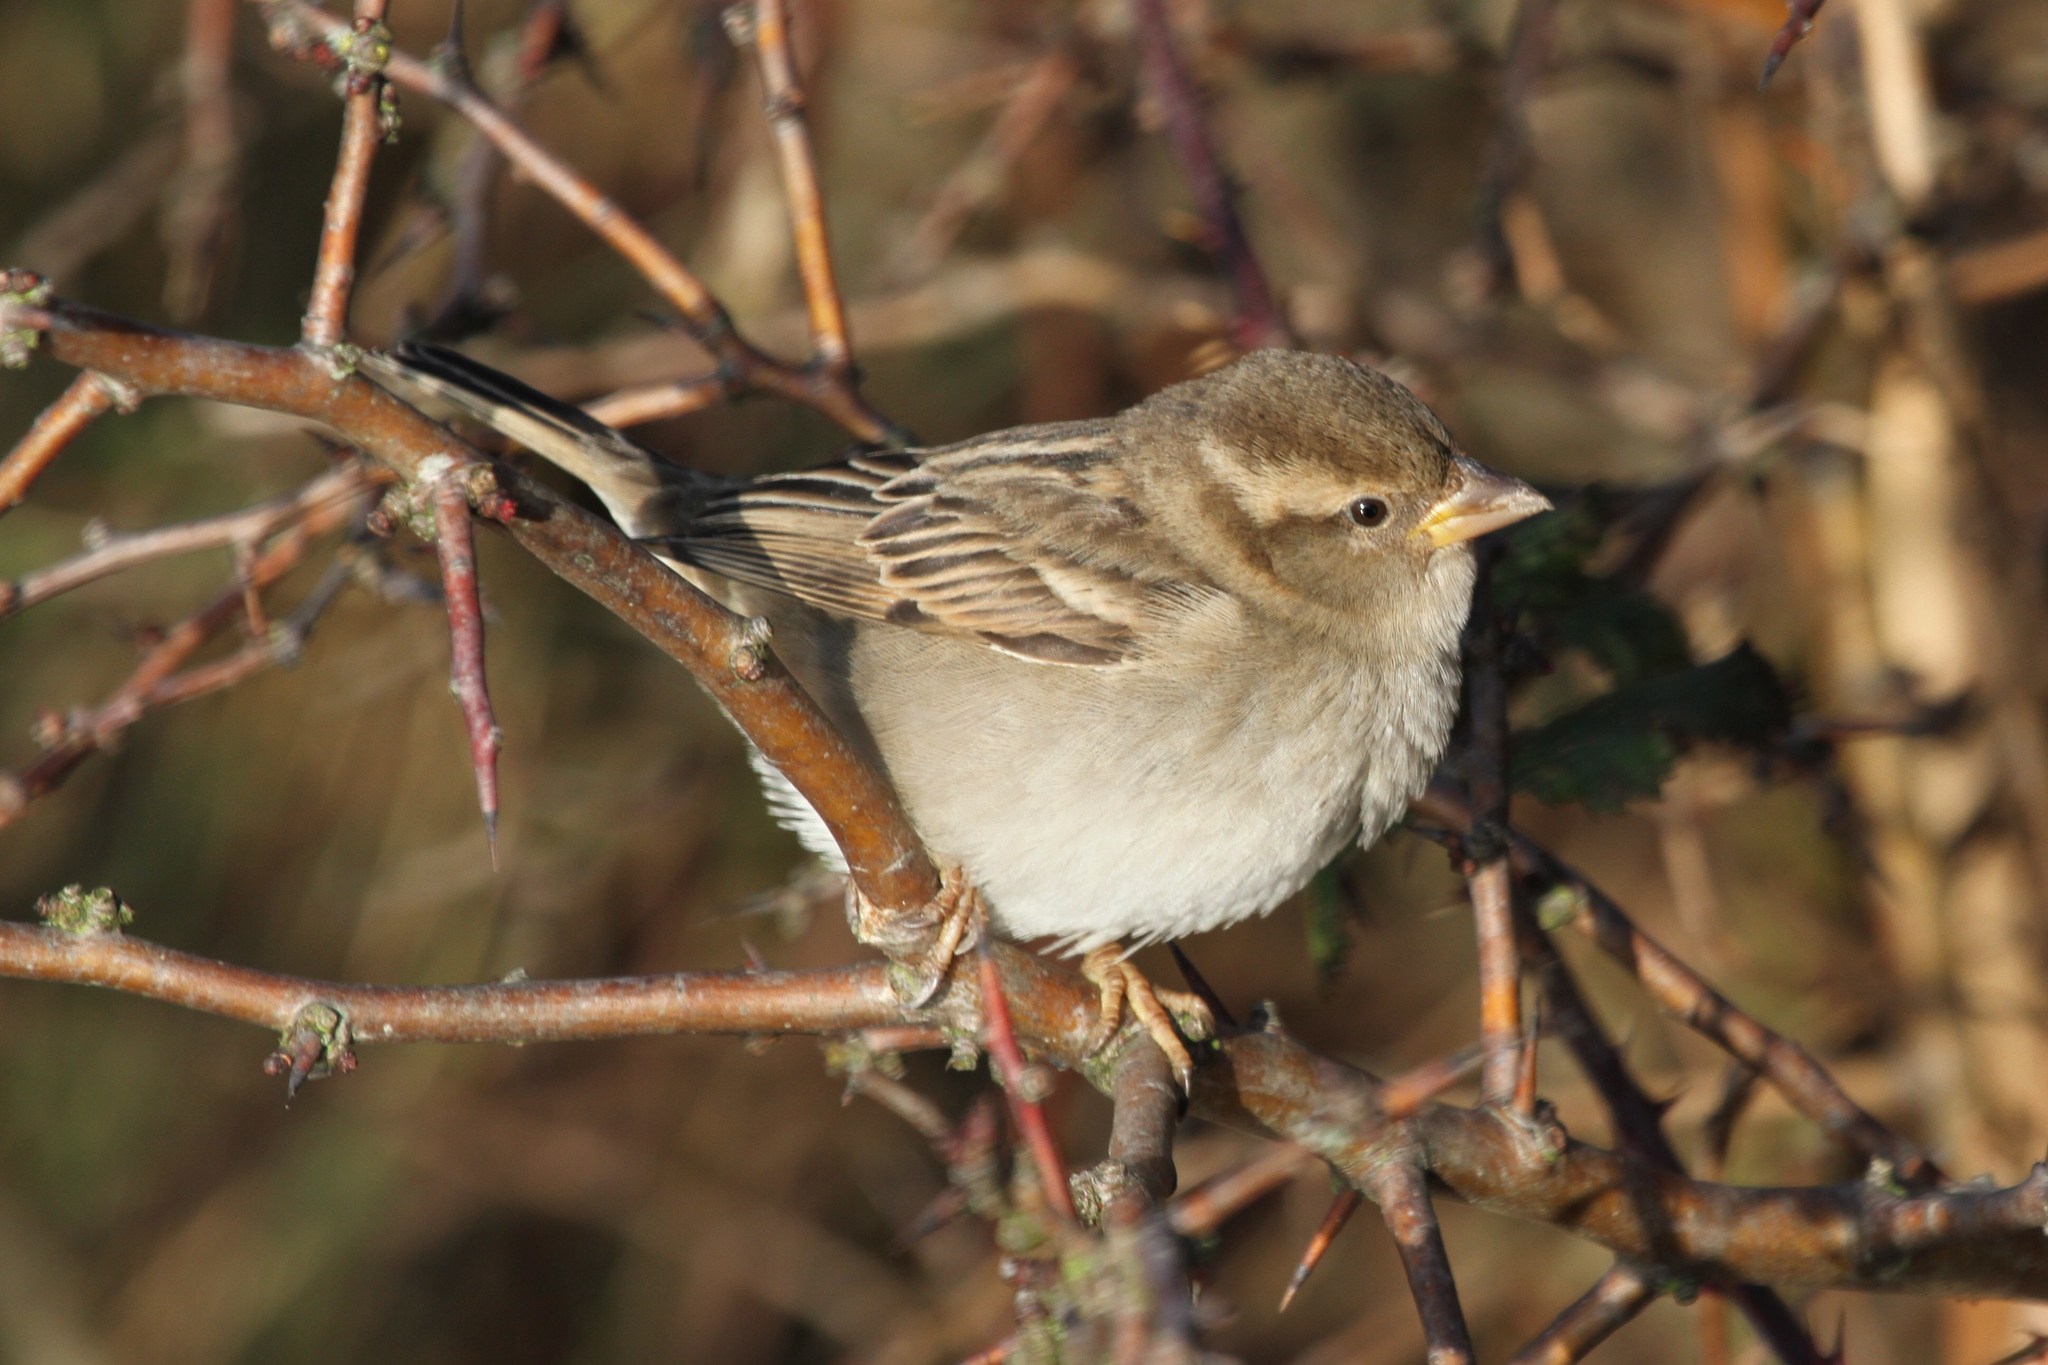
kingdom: Animalia
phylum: Chordata
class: Aves
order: Passeriformes
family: Passeridae
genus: Passer
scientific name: Passer domesticus
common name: House sparrow
